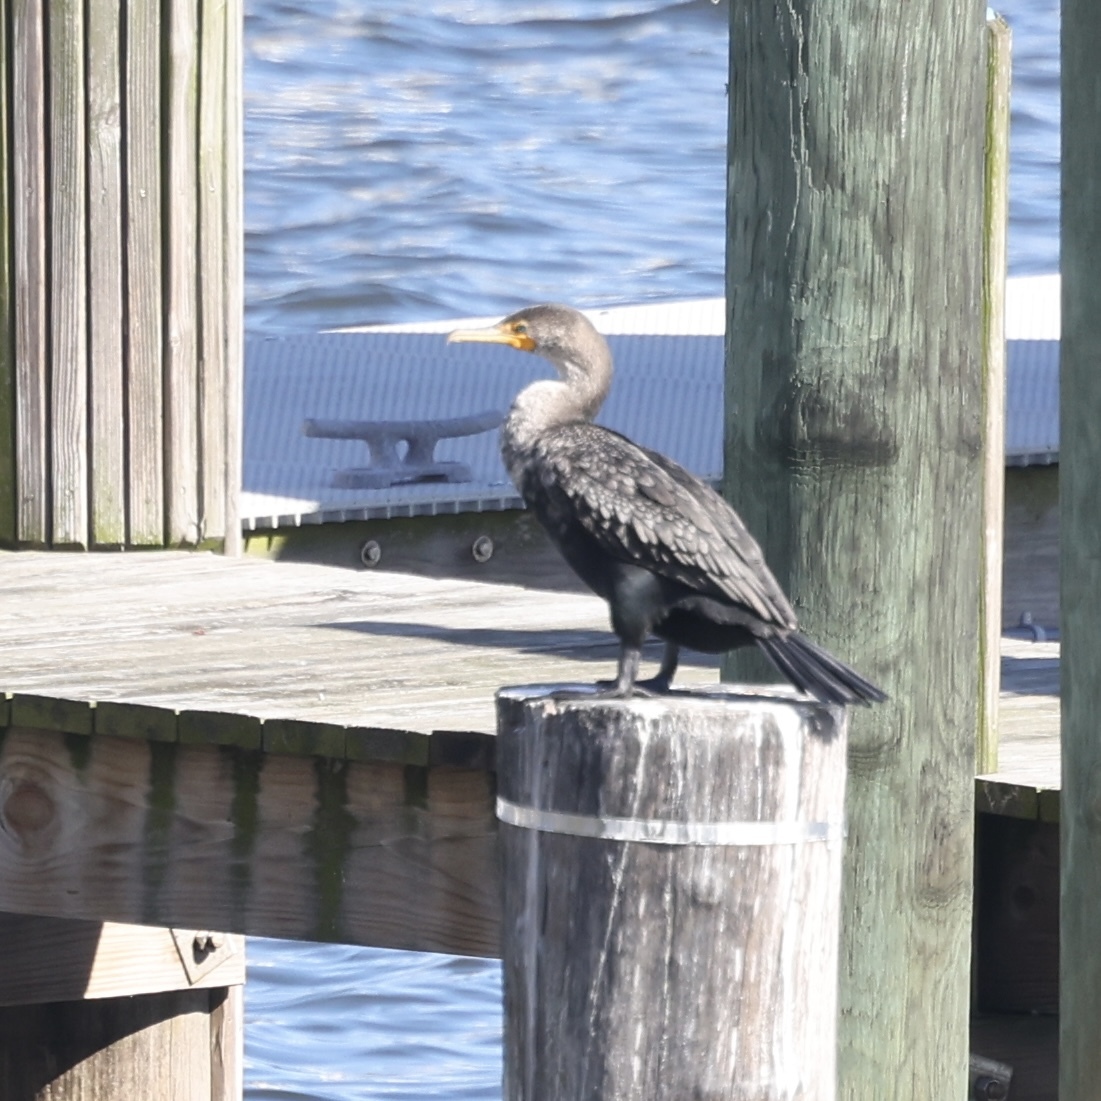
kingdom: Animalia
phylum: Chordata
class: Aves
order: Suliformes
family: Phalacrocoracidae
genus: Phalacrocorax
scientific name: Phalacrocorax auritus
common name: Double-crested cormorant
